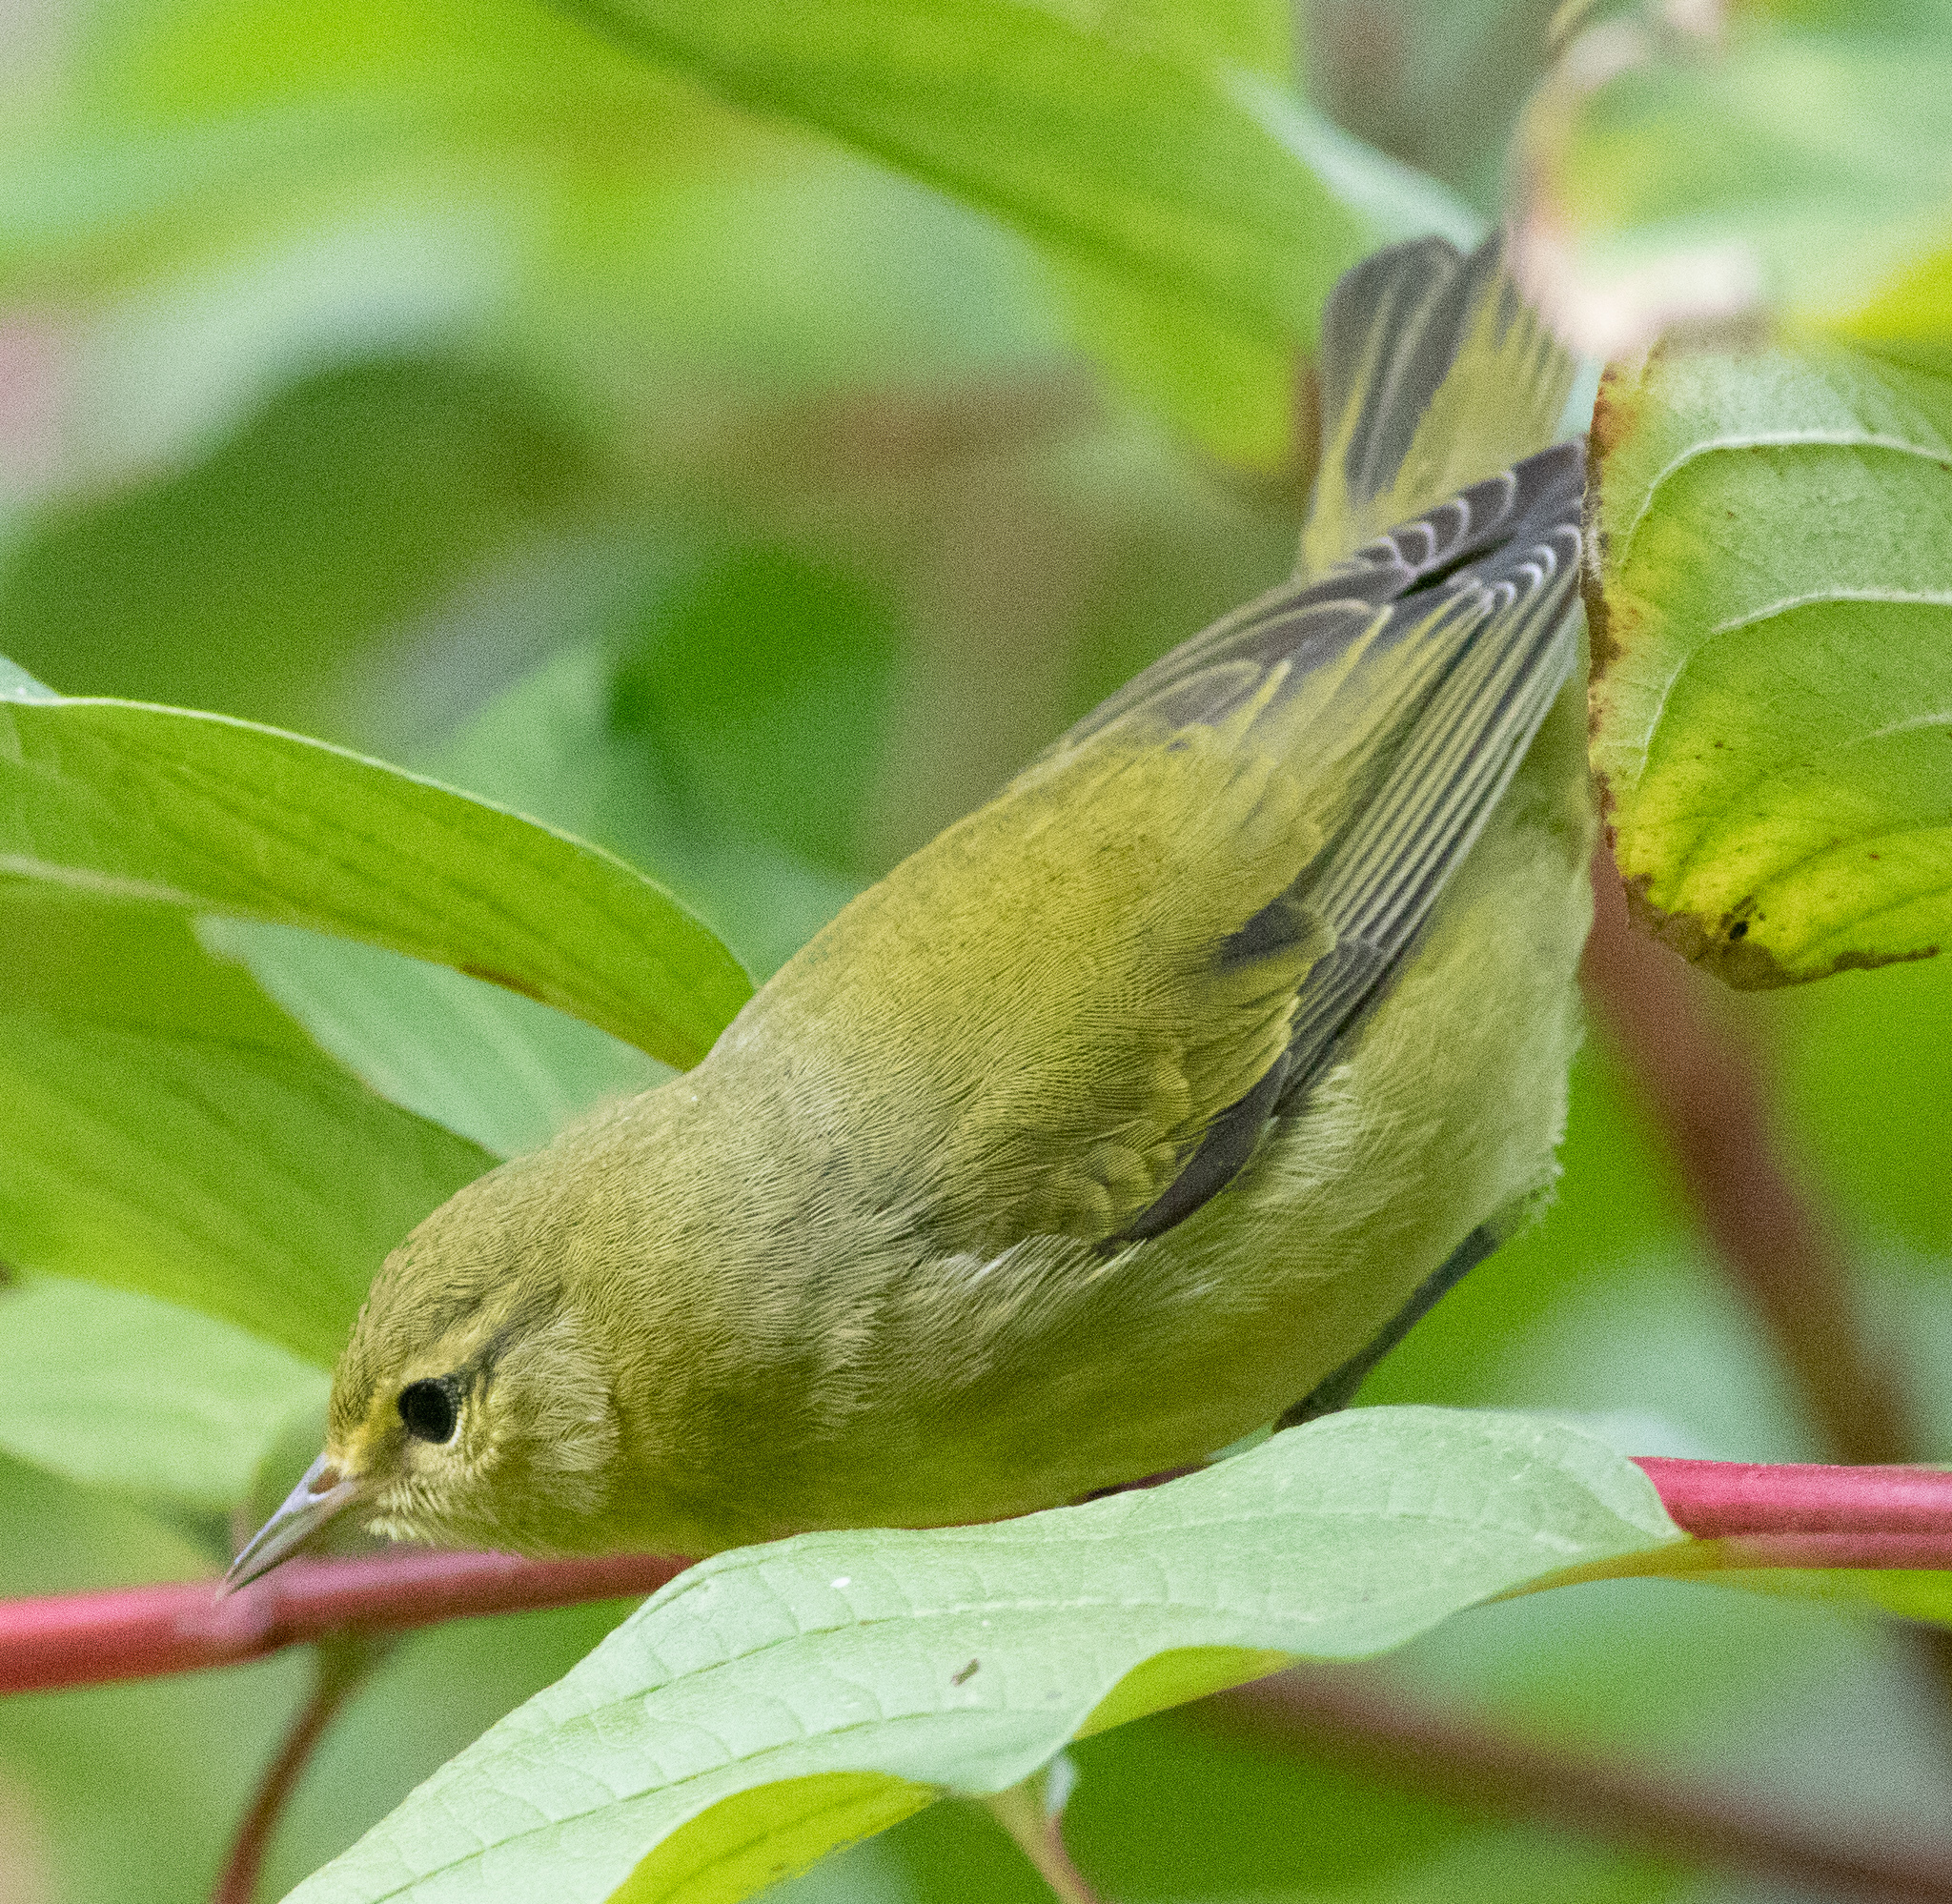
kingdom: Animalia
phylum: Chordata
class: Aves
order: Passeriformes
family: Parulidae
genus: Leiothlypis
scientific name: Leiothlypis peregrina
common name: Tennessee warbler
